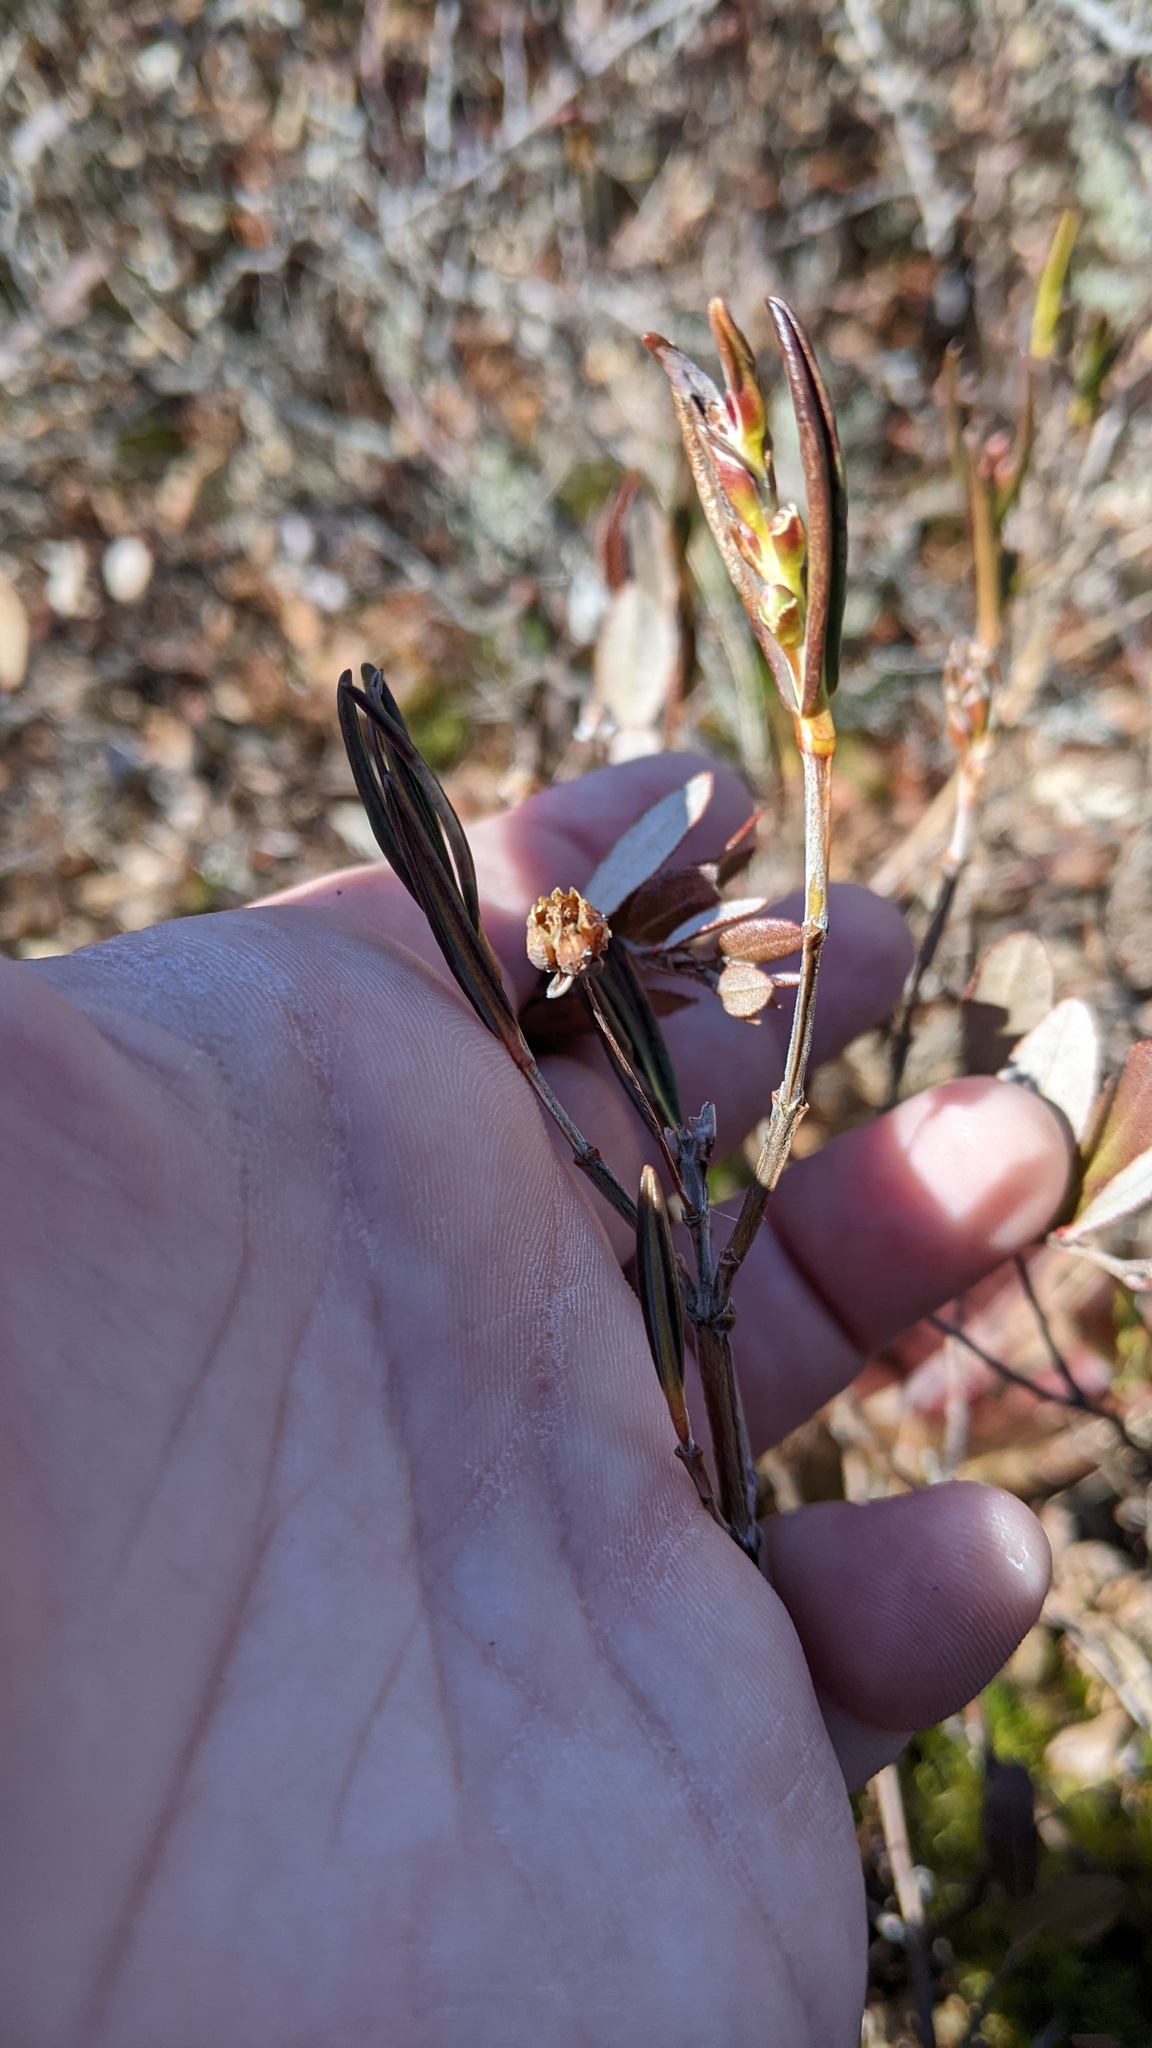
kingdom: Plantae
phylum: Tracheophyta
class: Magnoliopsida
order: Ericales
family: Ericaceae
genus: Kalmia
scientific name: Kalmia polifolia
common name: Bog-laurel
